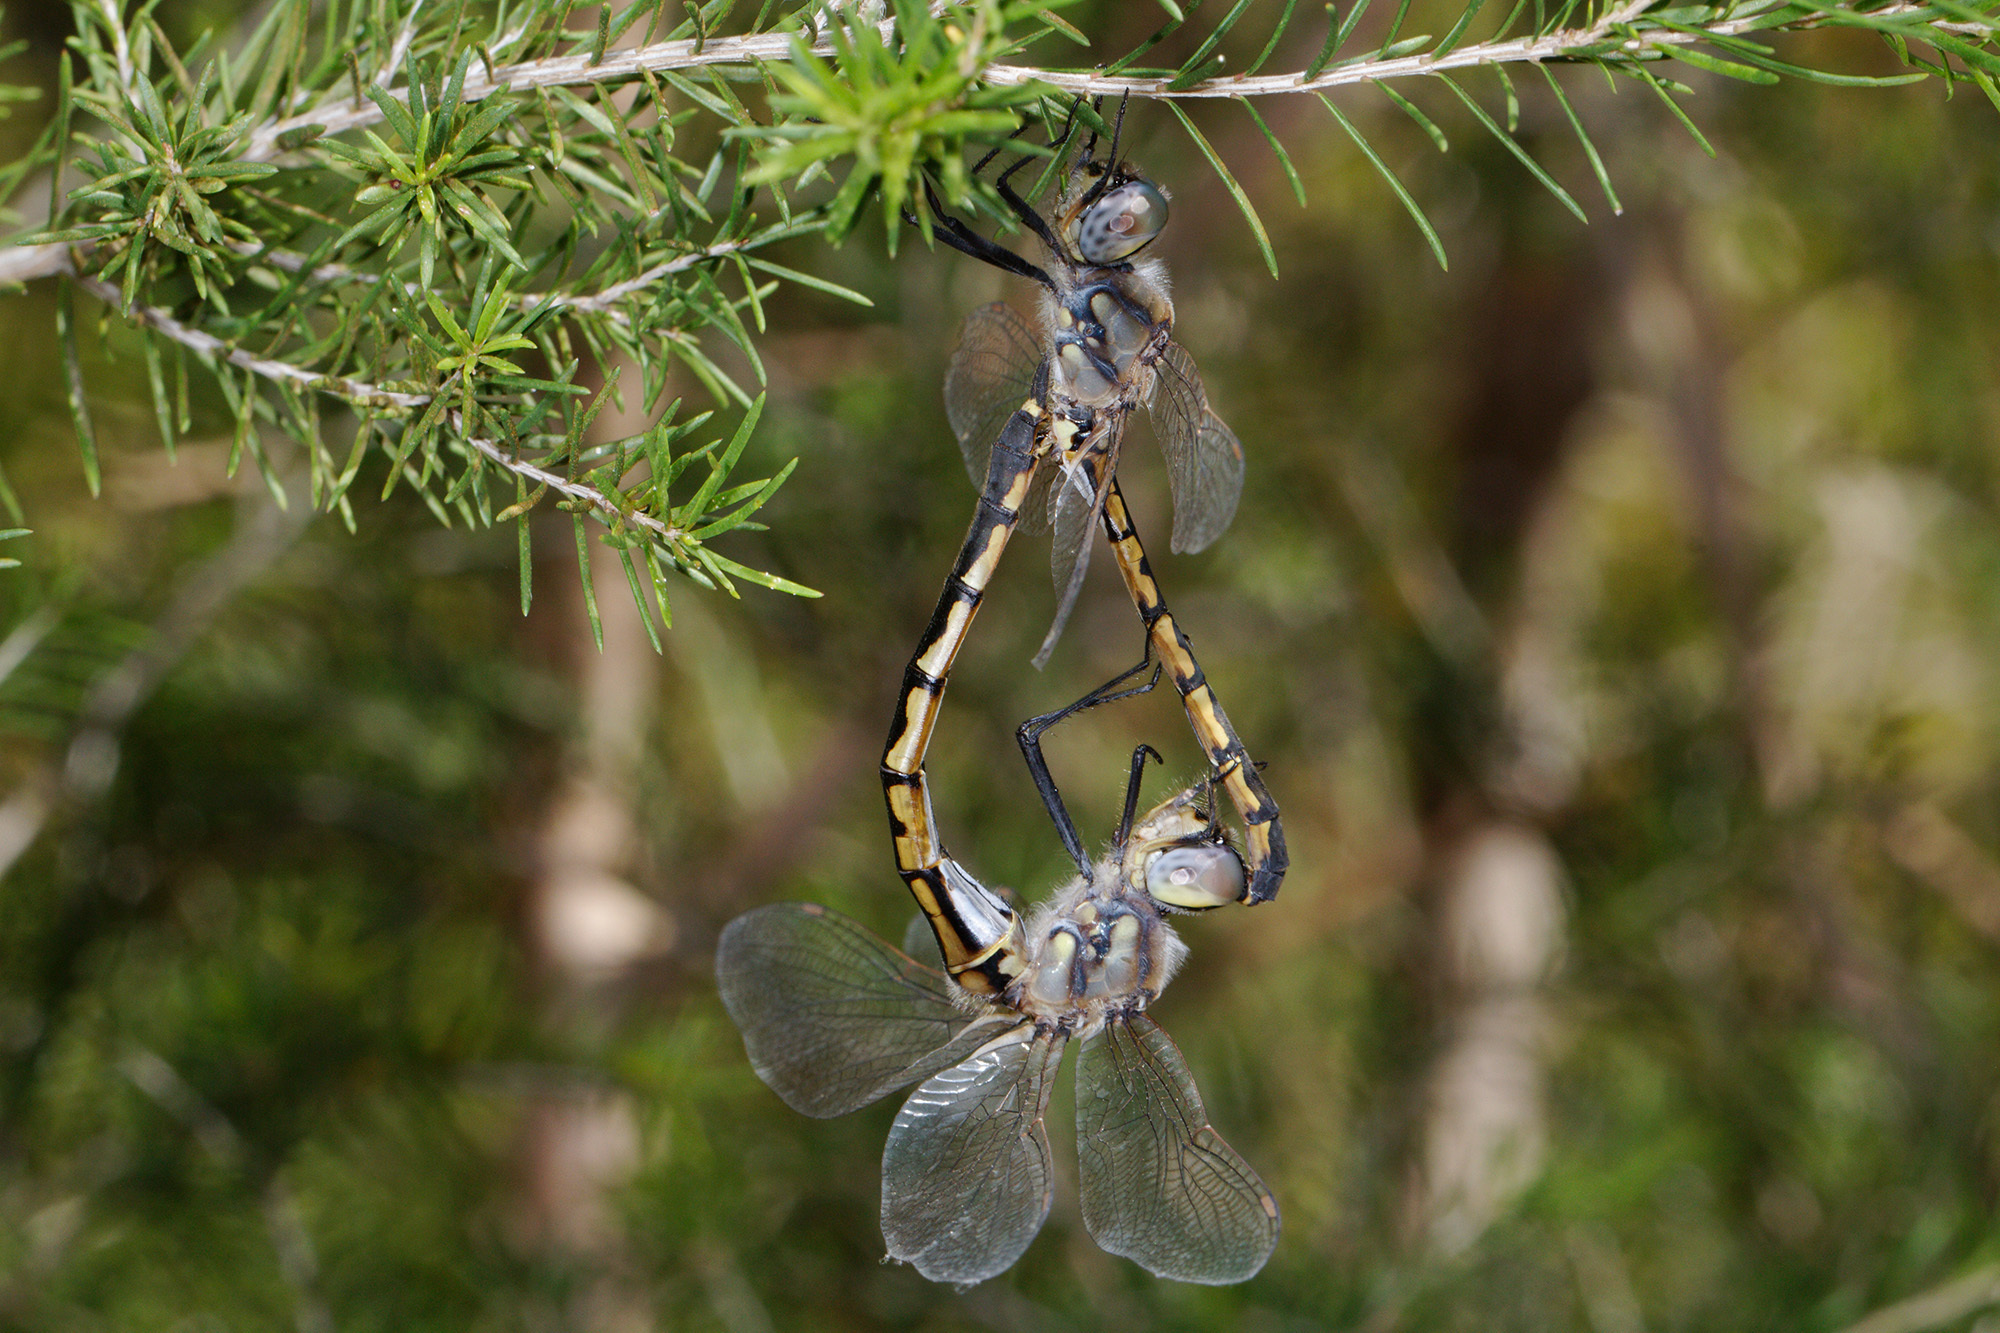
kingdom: Animalia
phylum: Arthropoda
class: Insecta
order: Odonata
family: Corduliidae
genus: Hemicordulia
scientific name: Hemicordulia tau
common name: Tau emerald
